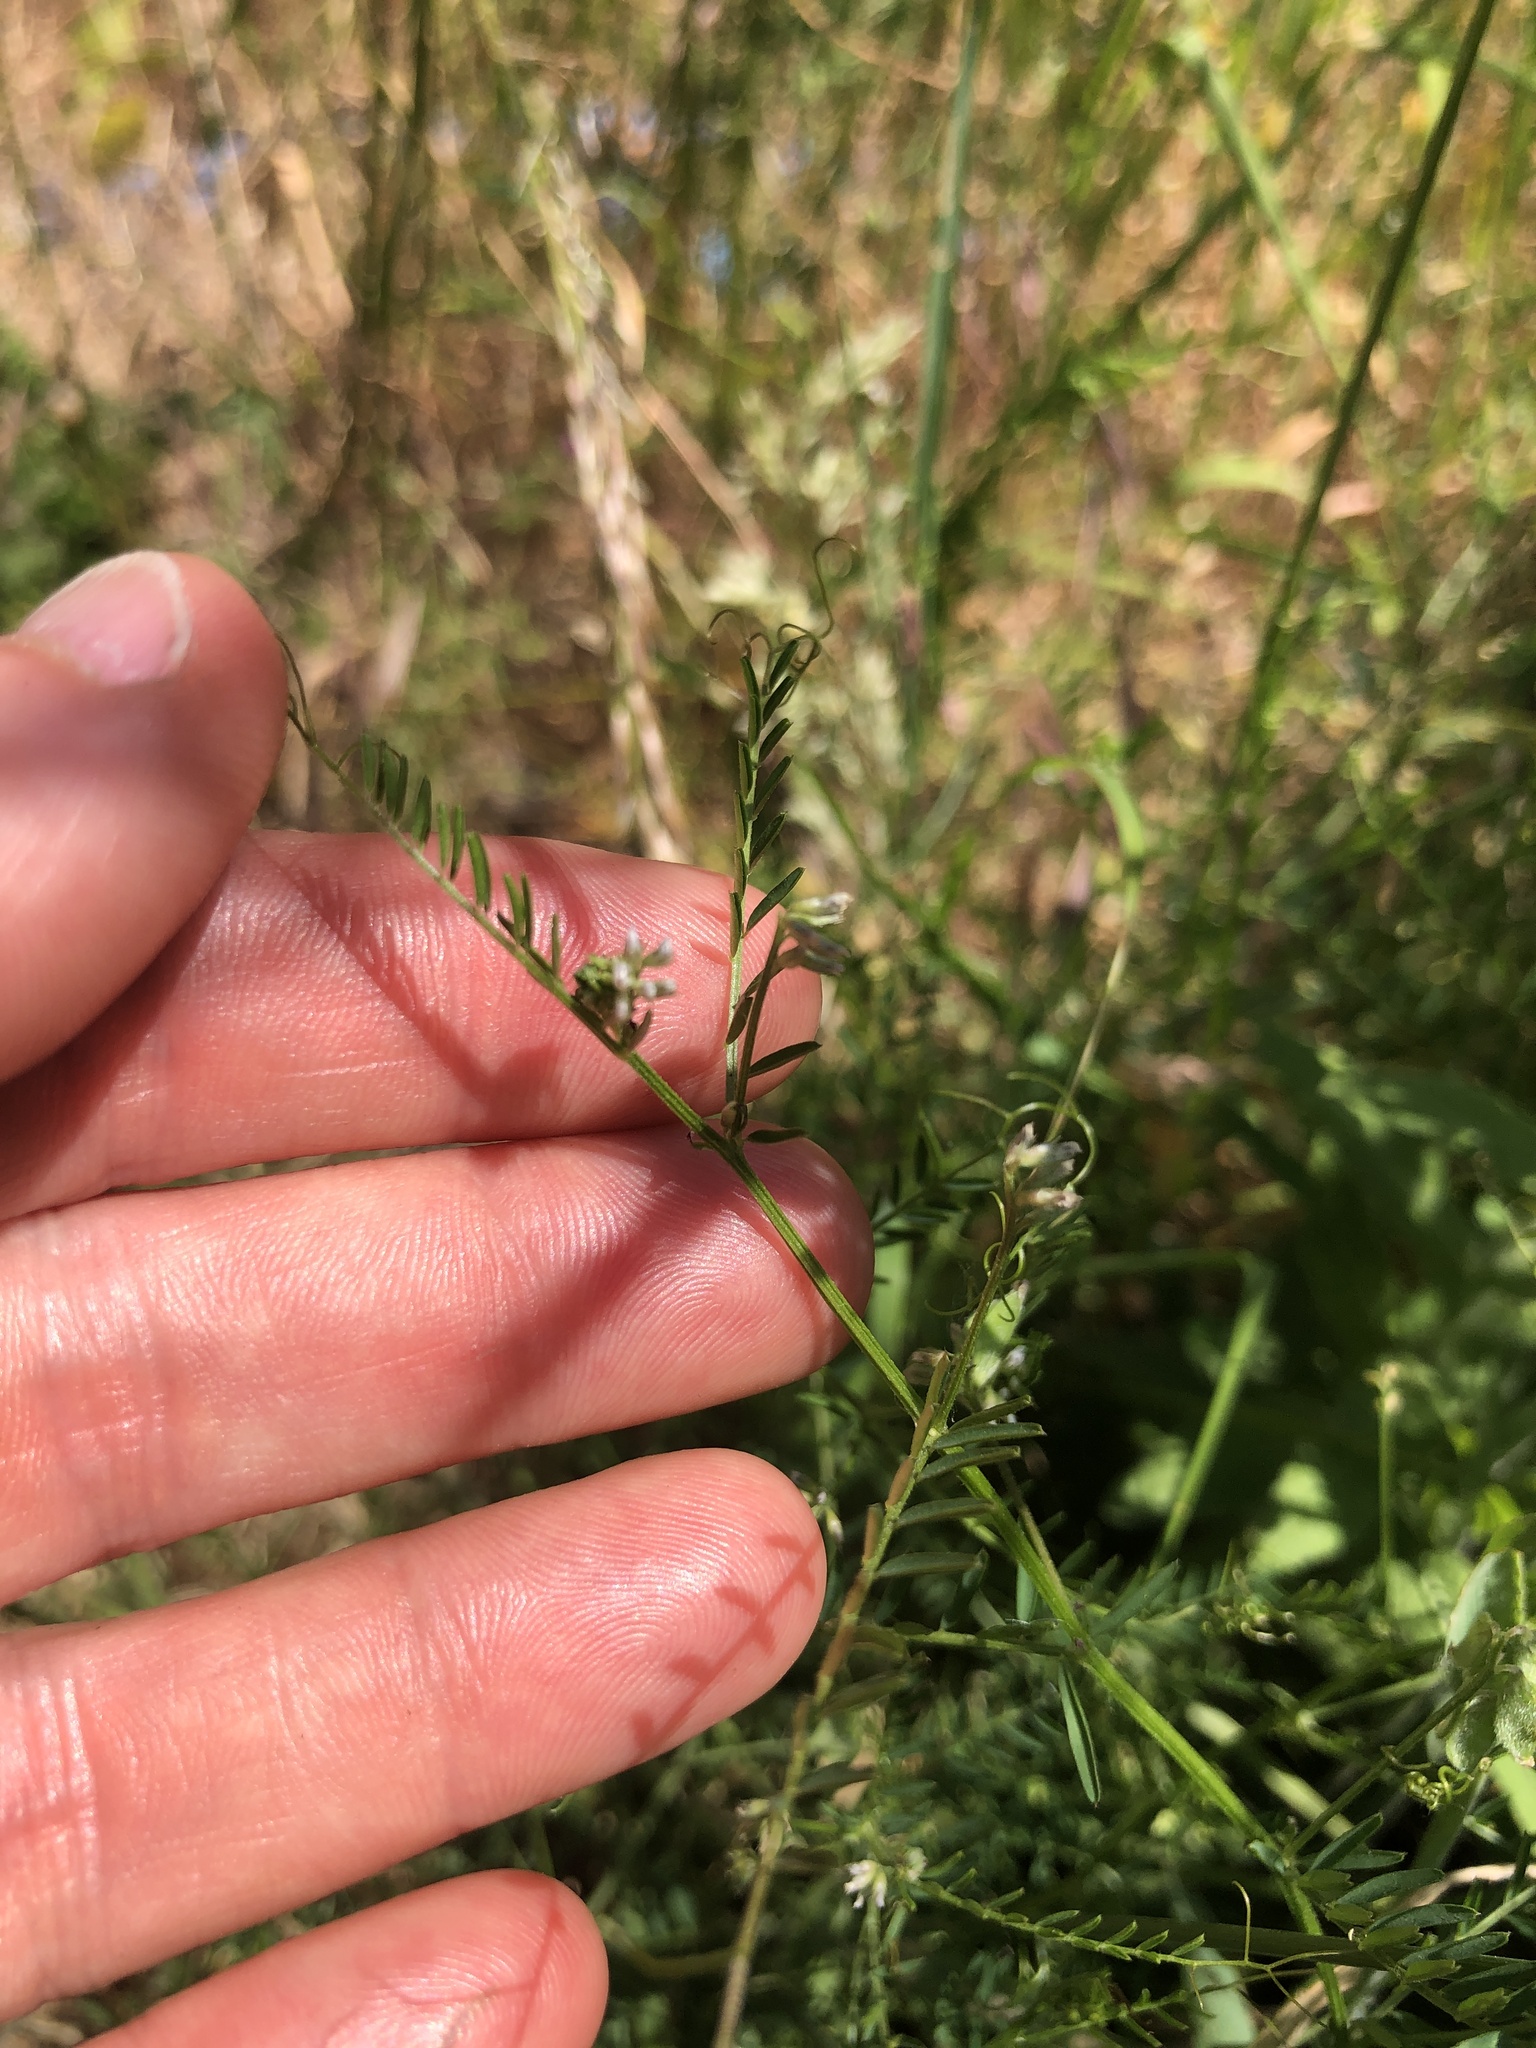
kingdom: Plantae
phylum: Tracheophyta
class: Magnoliopsida
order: Fabales
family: Fabaceae
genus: Vicia
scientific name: Vicia hirsuta
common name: Tiny vetch
